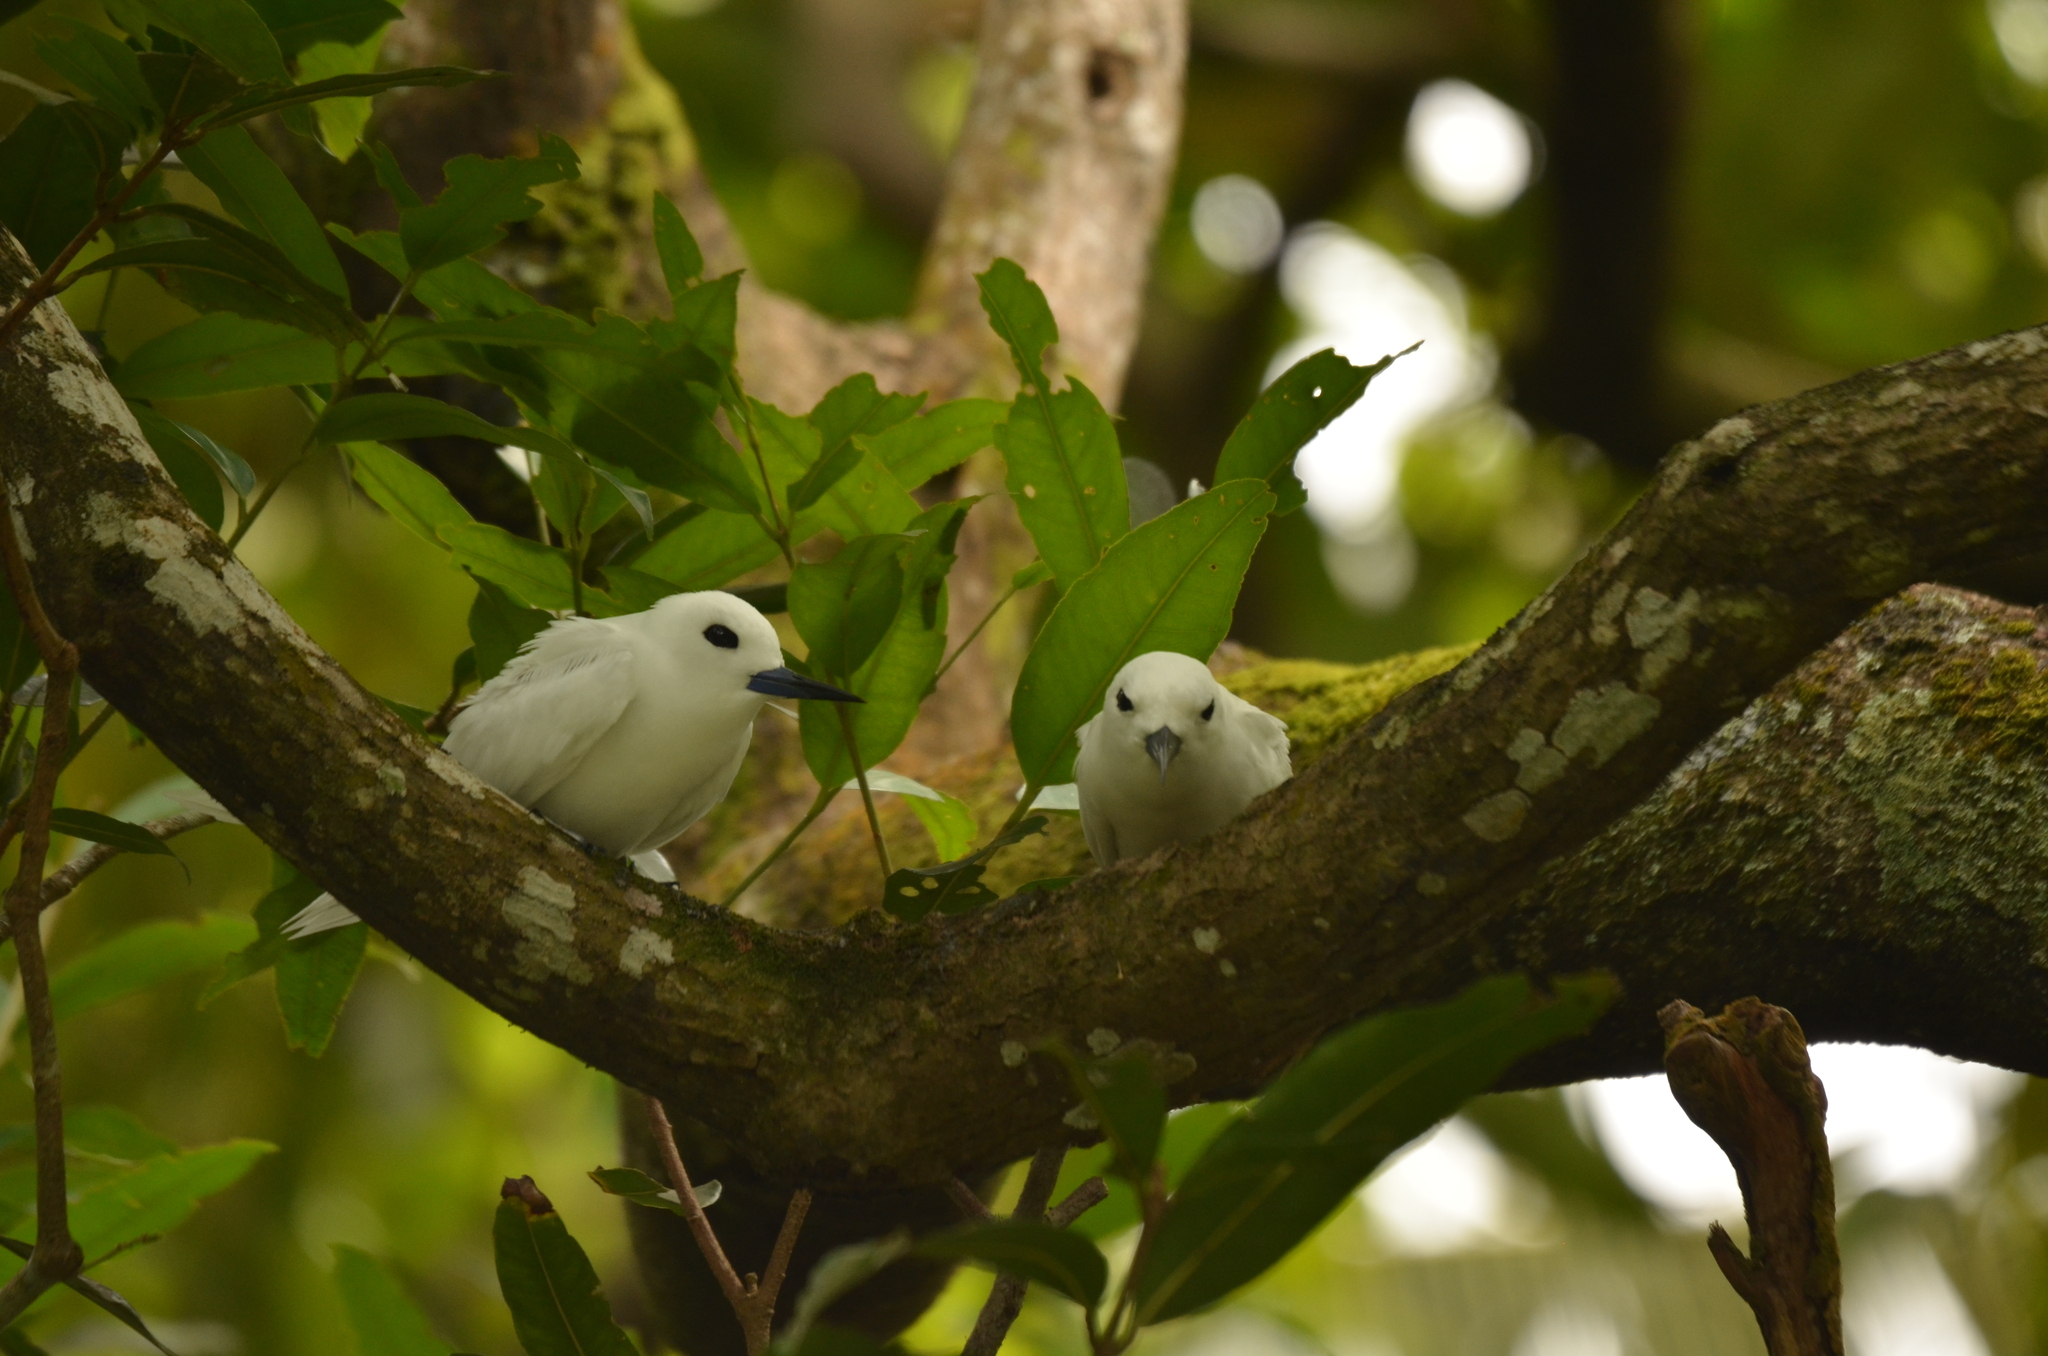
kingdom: Animalia
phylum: Chordata
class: Aves
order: Charadriiformes
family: Laridae
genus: Gygis
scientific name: Gygis alba
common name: White tern
